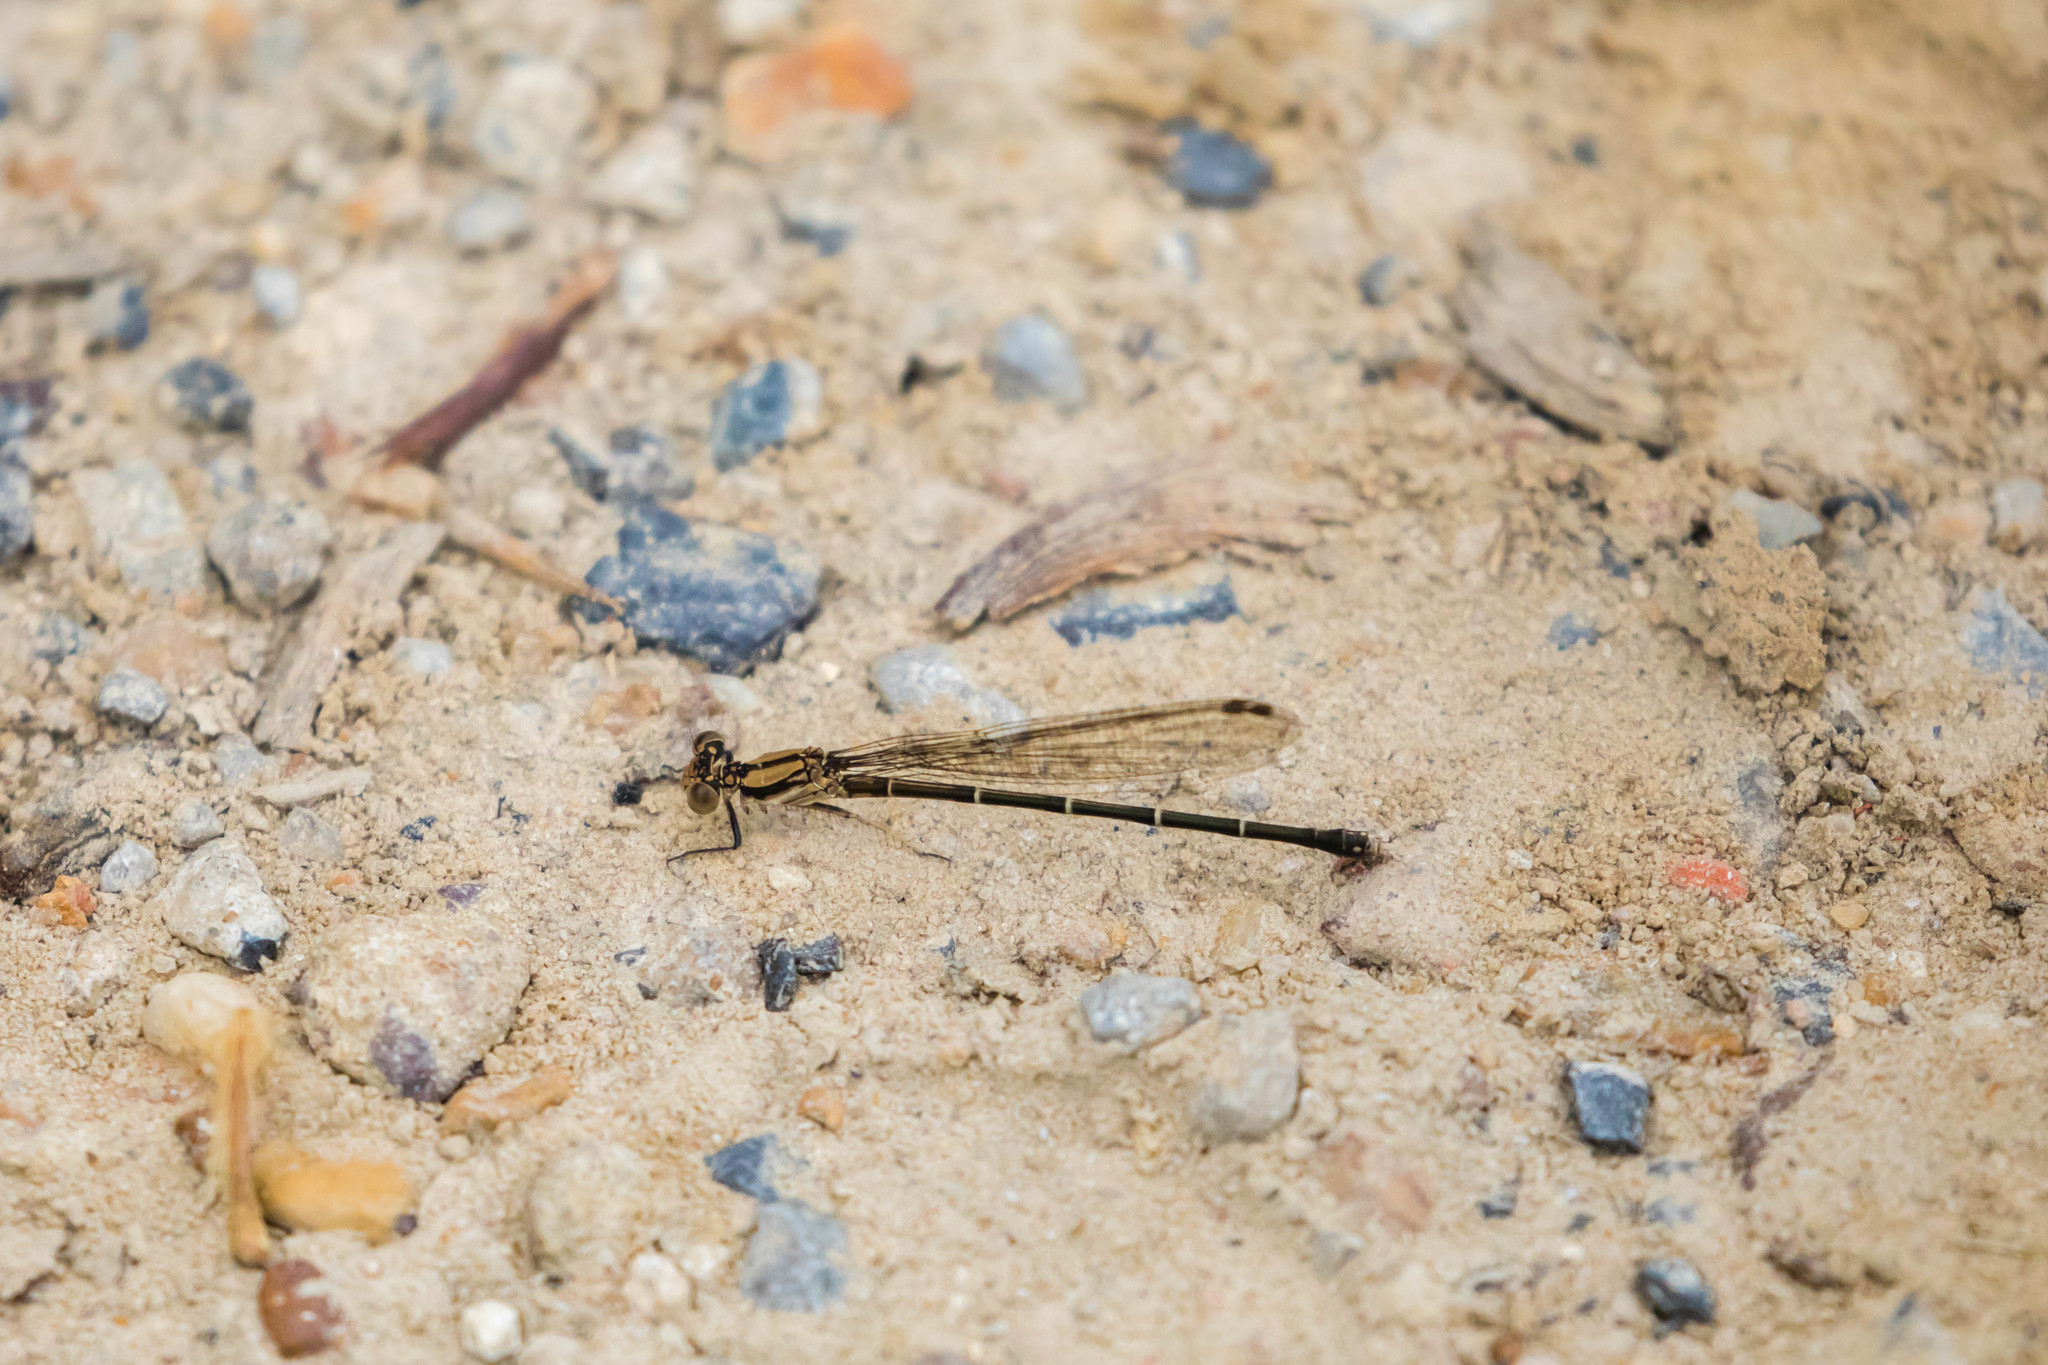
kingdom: Animalia
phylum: Arthropoda
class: Insecta
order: Odonata
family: Coenagrionidae
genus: Argia
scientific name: Argia tibialis
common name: Blue-tipped dancer
